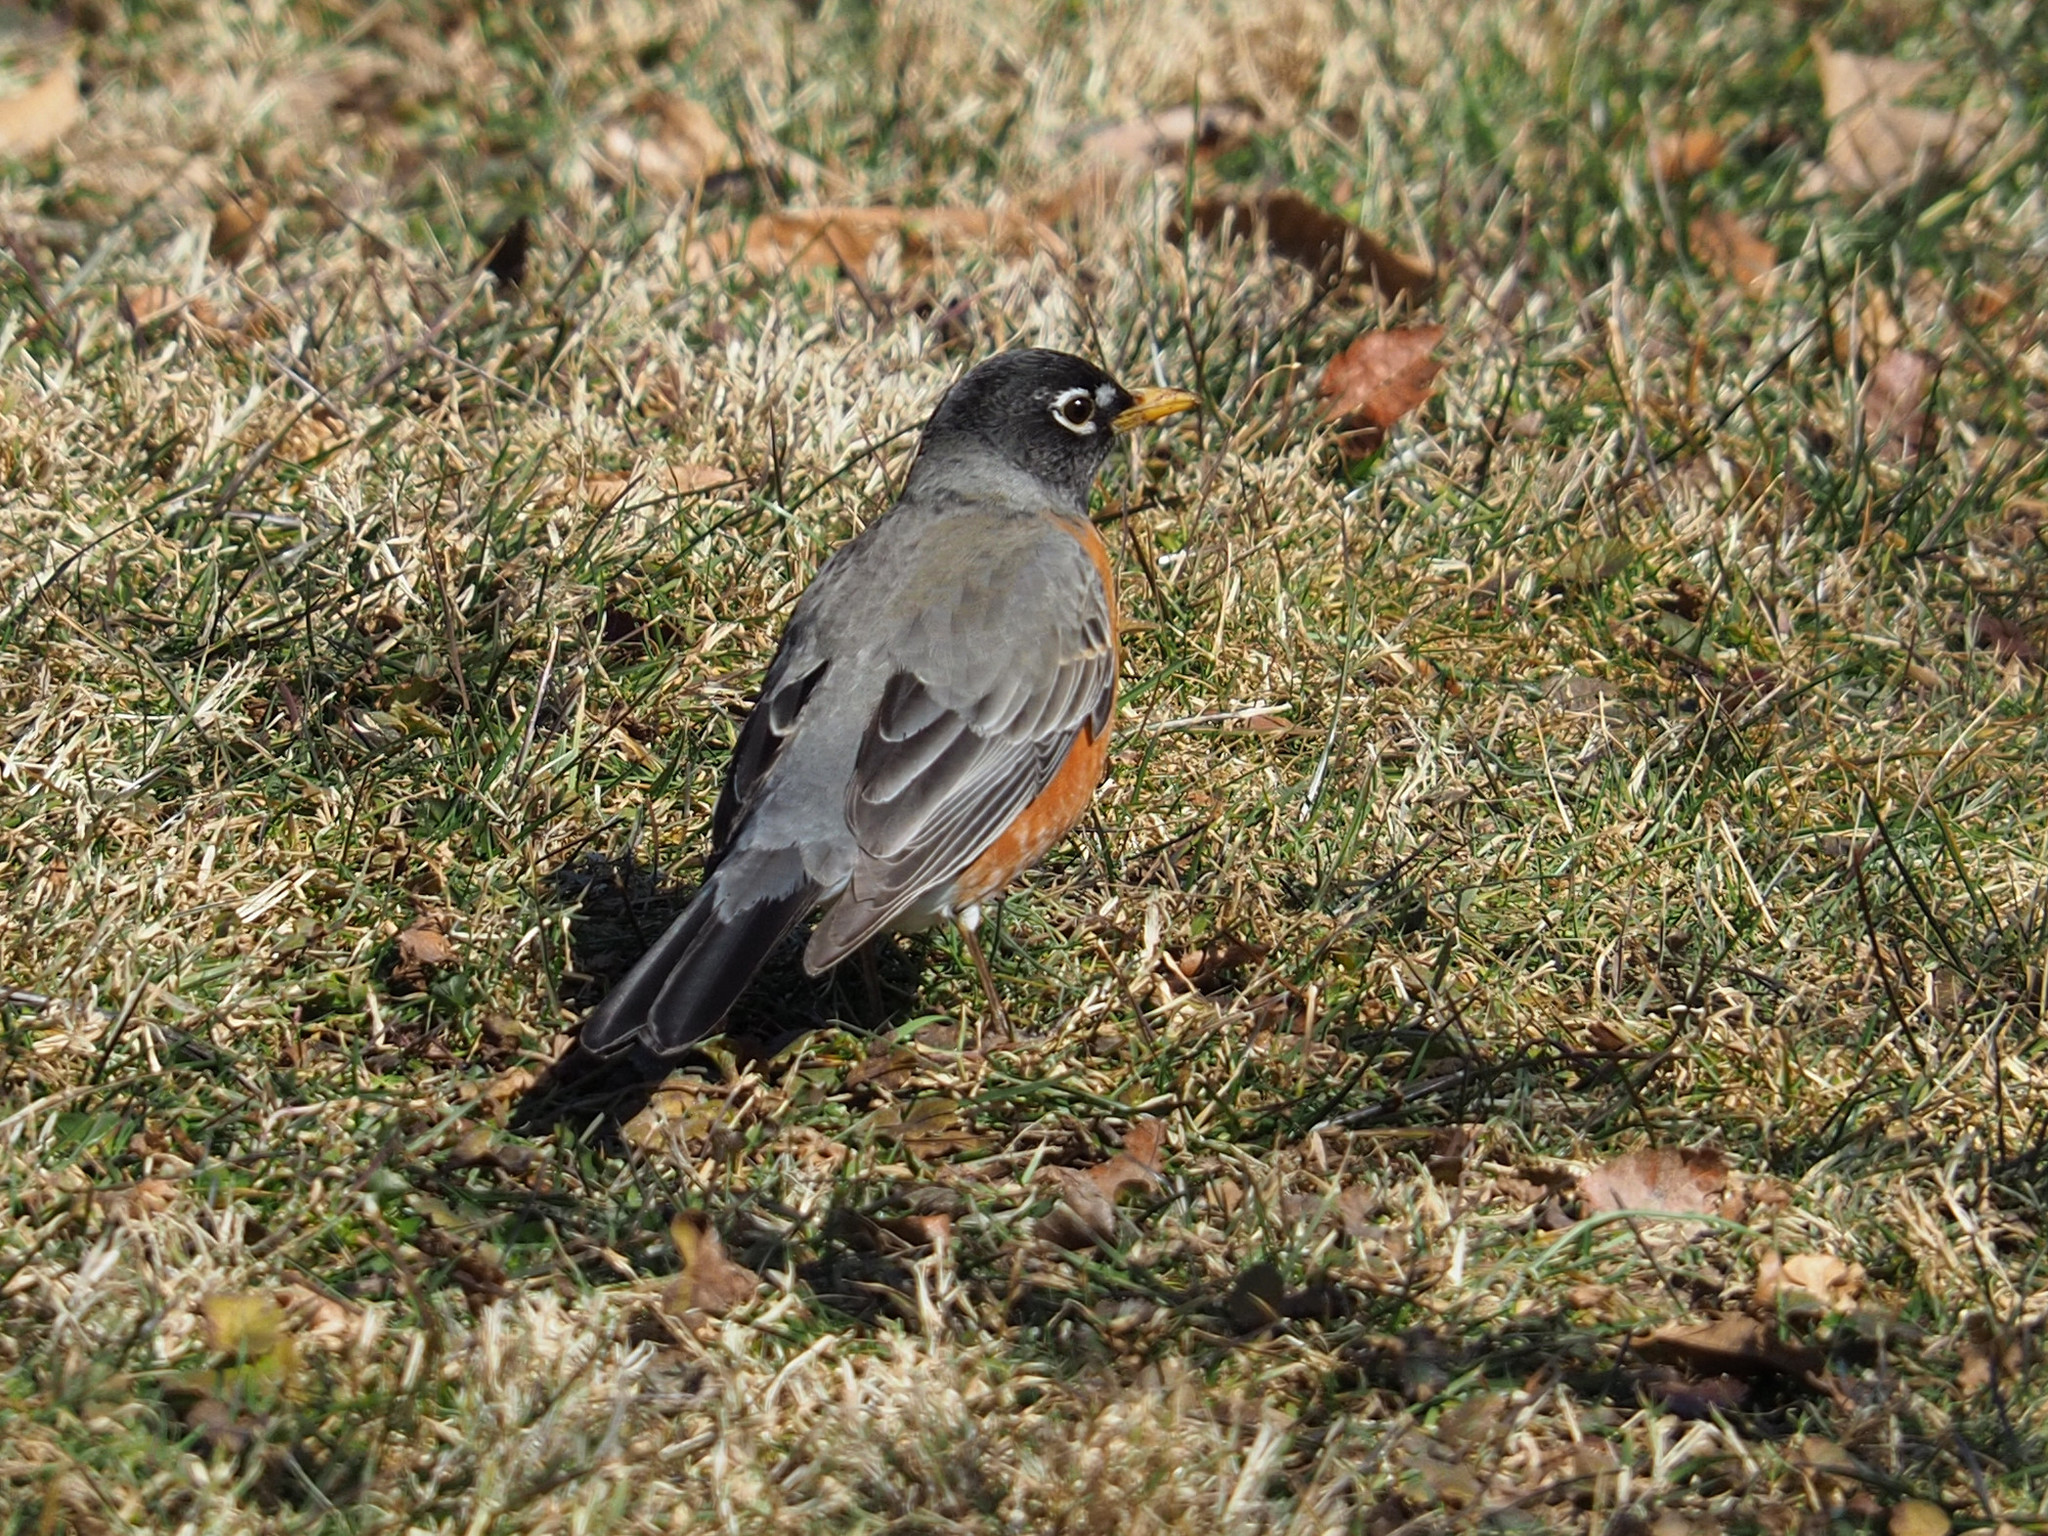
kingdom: Animalia
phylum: Chordata
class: Aves
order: Passeriformes
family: Turdidae
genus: Turdus
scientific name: Turdus migratorius
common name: American robin
